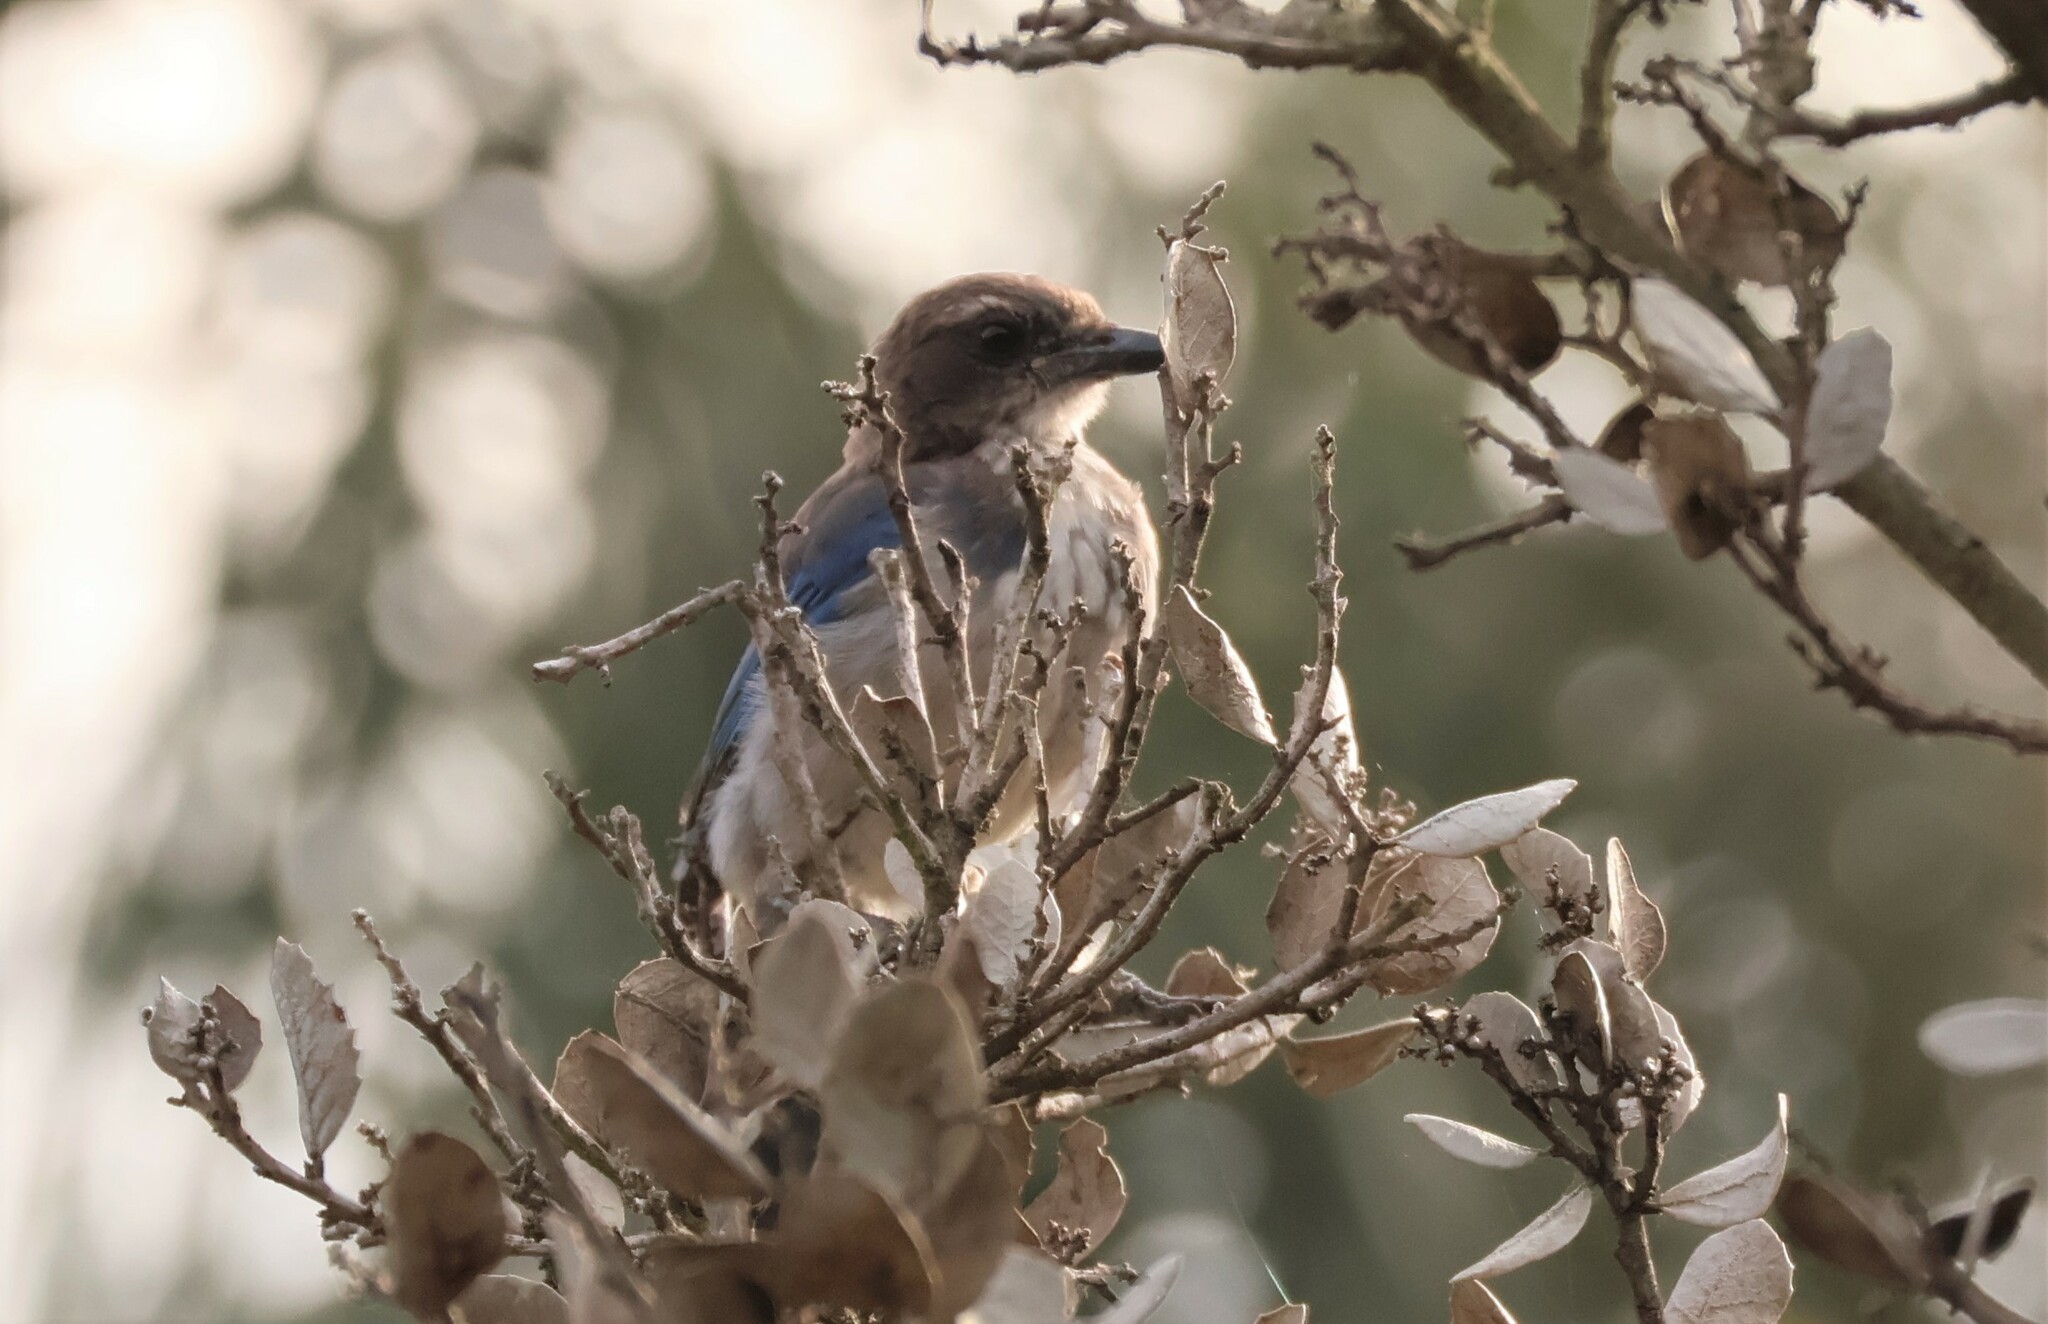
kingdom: Animalia
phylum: Chordata
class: Aves
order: Passeriformes
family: Corvidae
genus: Aphelocoma
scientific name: Aphelocoma californica
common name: California scrub-jay
